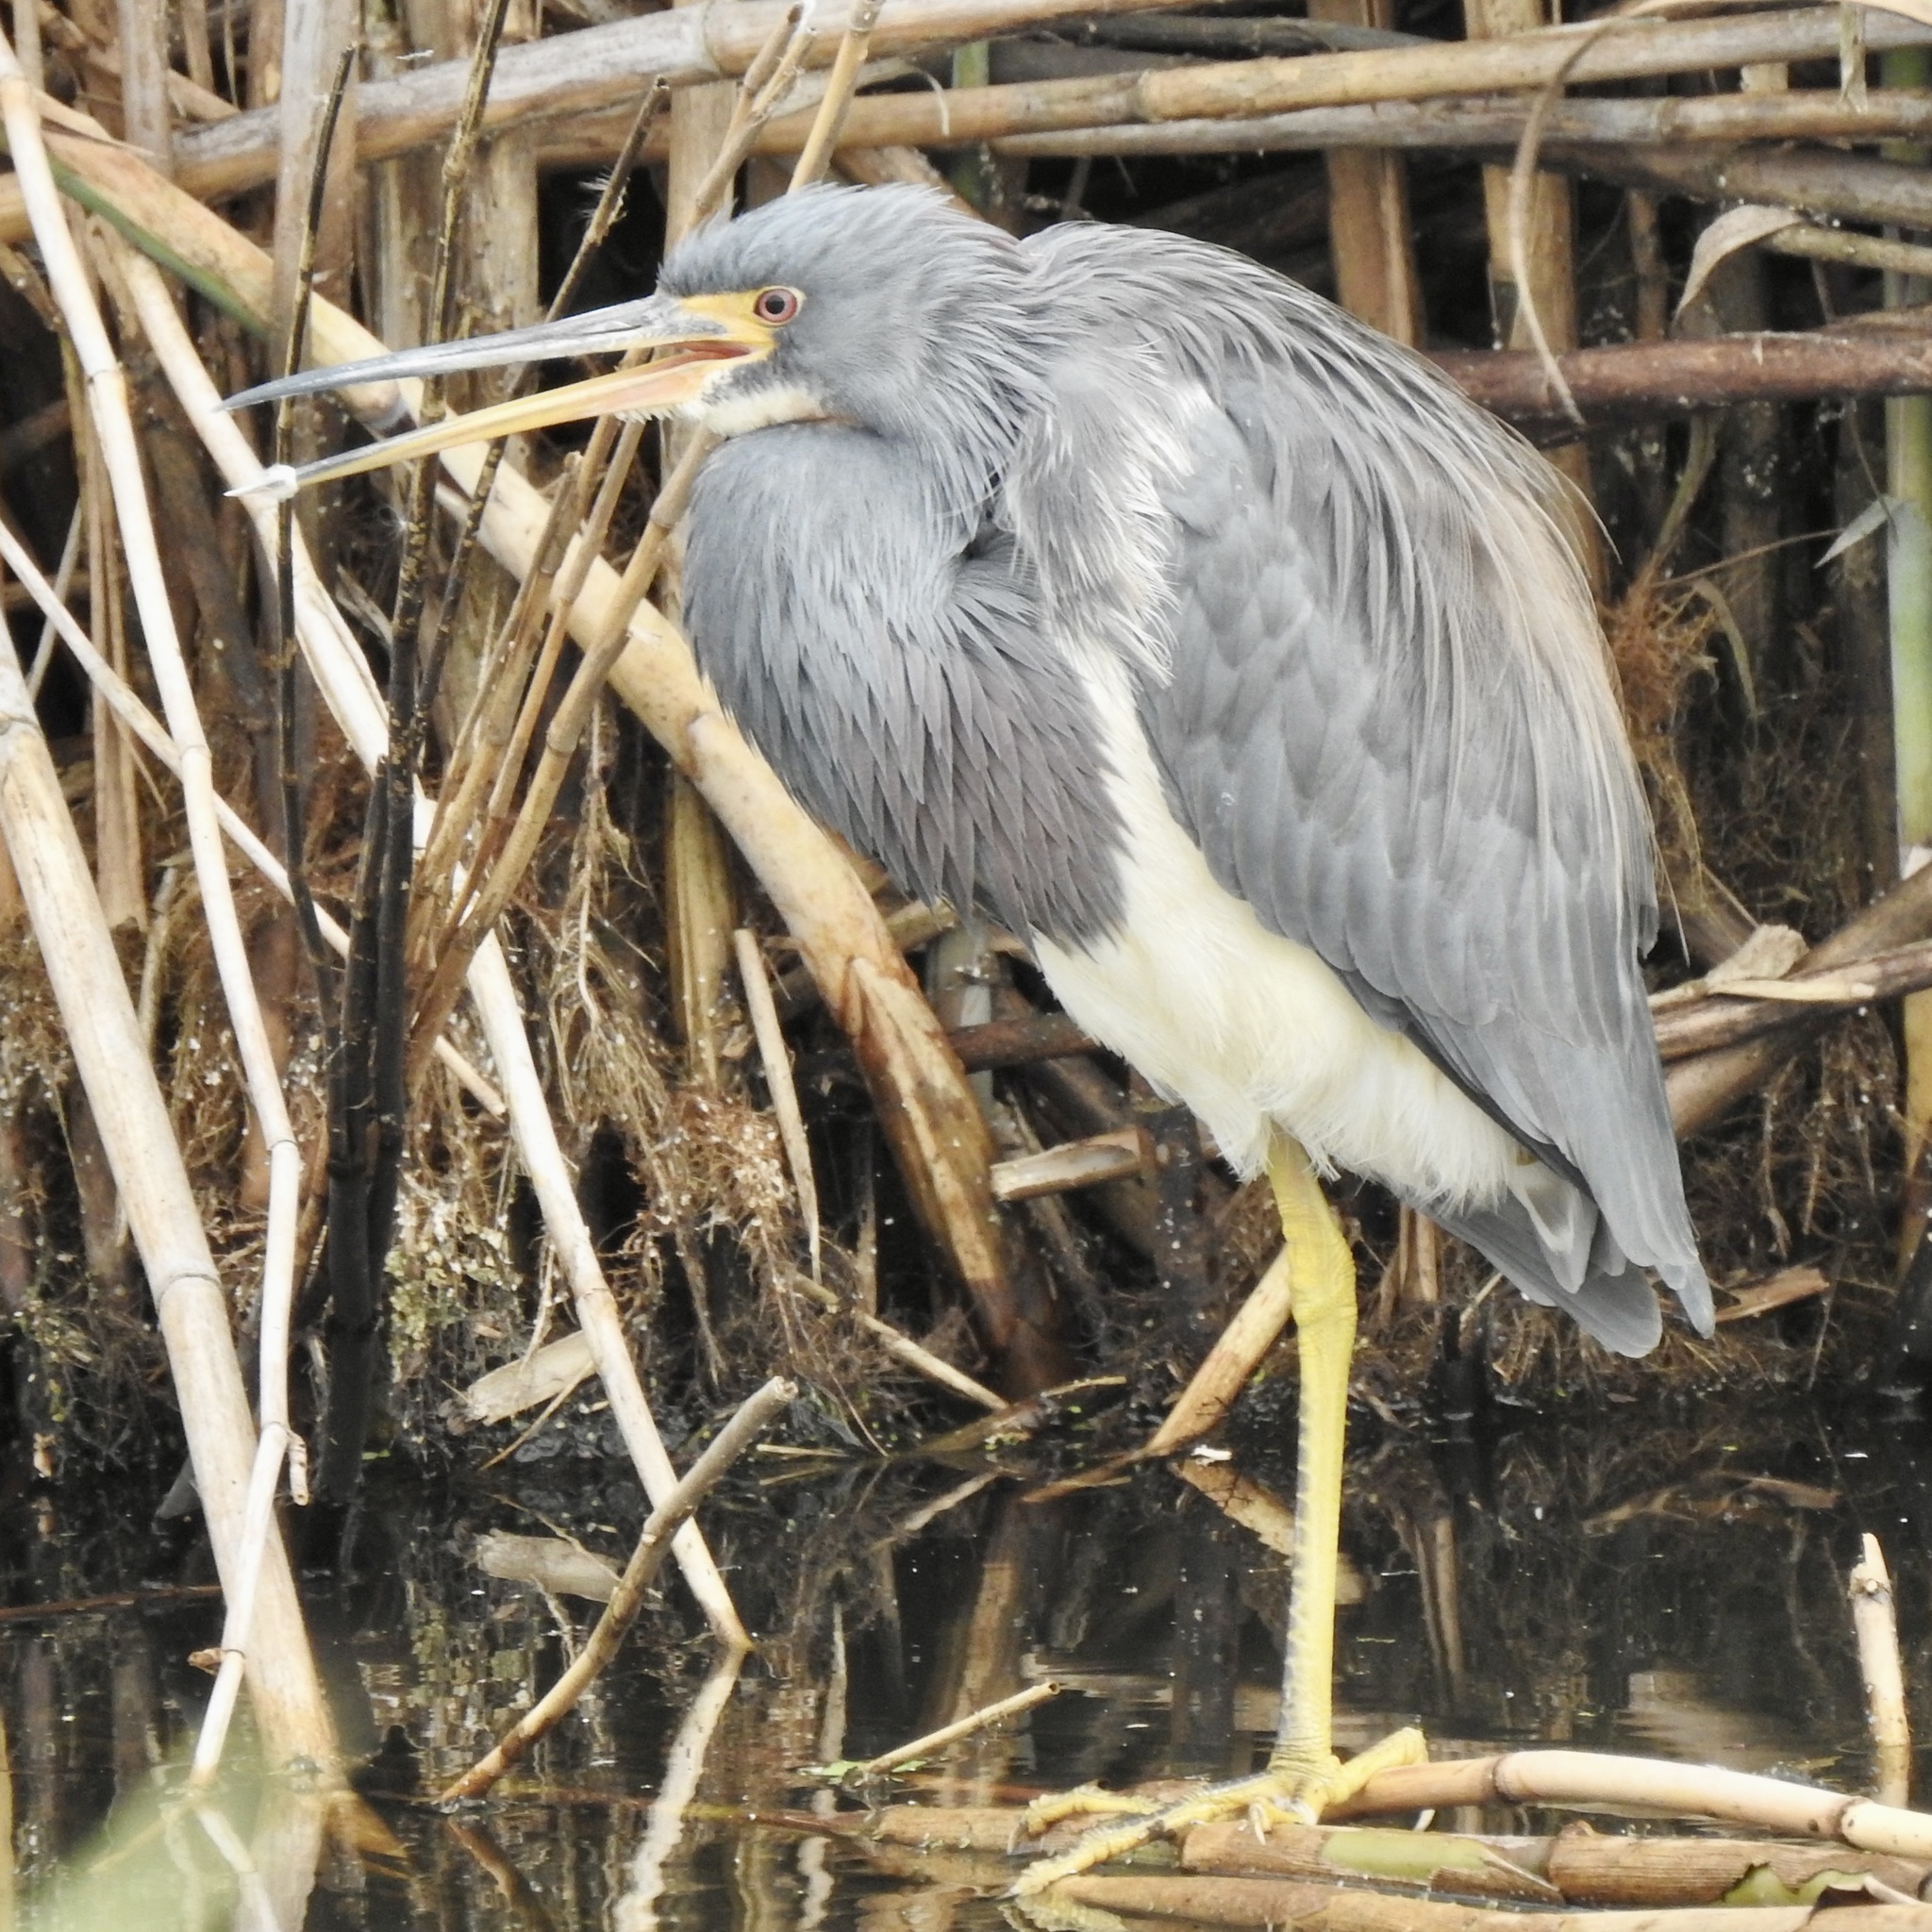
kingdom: Animalia
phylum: Chordata
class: Aves
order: Pelecaniformes
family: Ardeidae
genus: Egretta
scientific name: Egretta tricolor
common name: Tricolored heron
